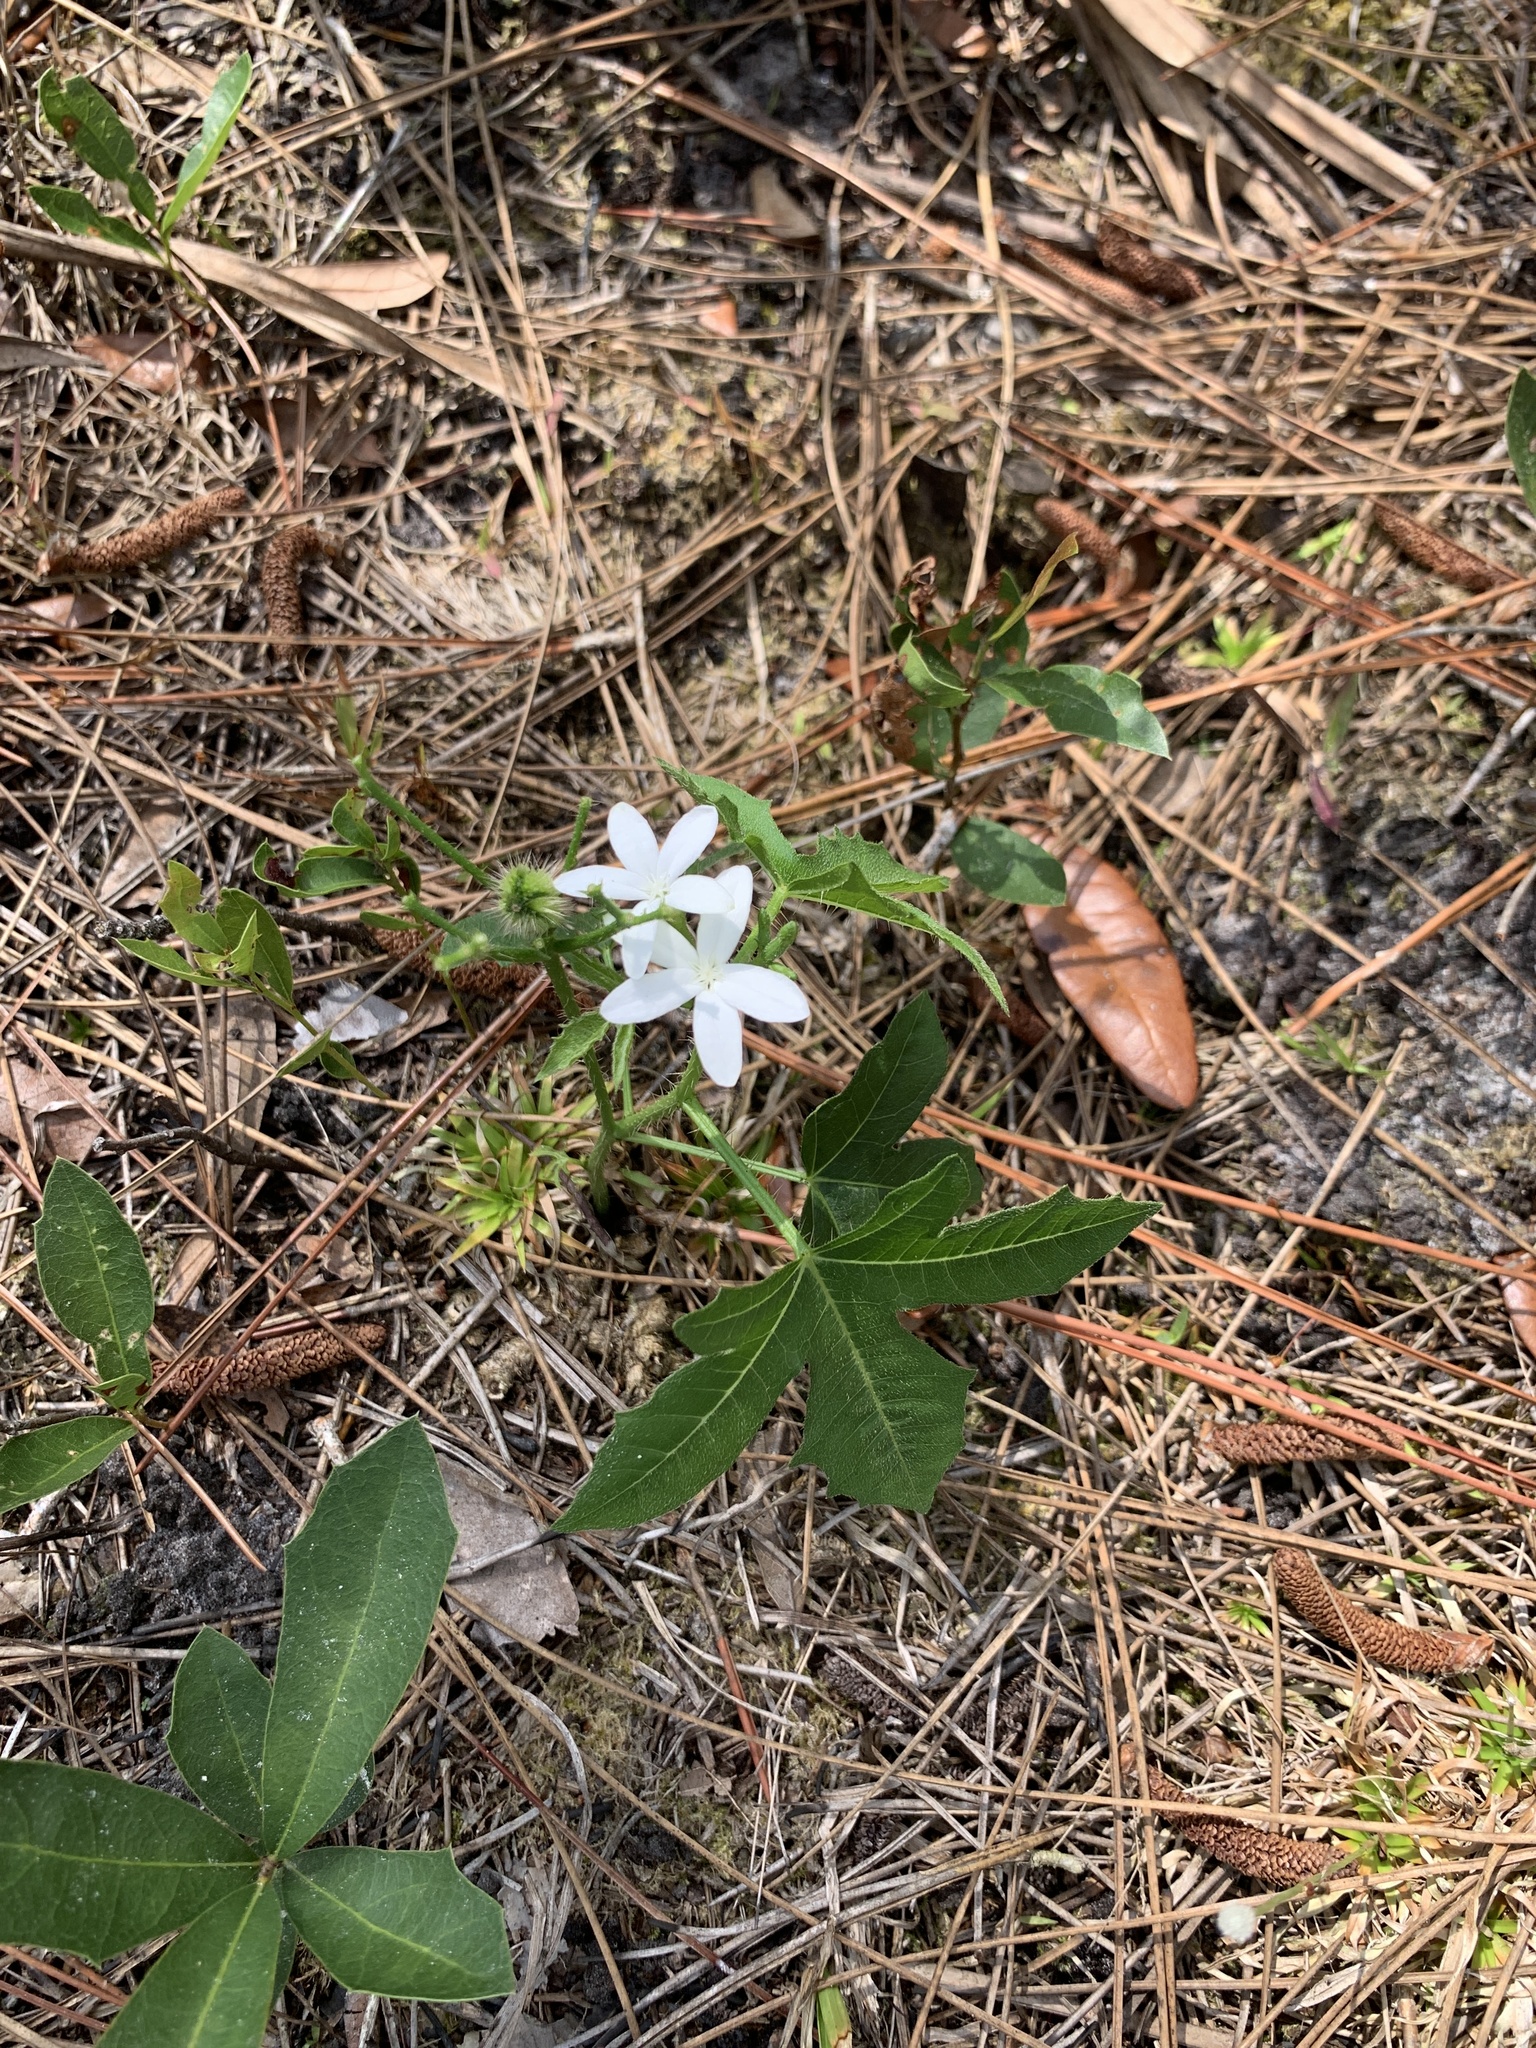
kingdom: Plantae
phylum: Tracheophyta
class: Magnoliopsida
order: Malpighiales
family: Euphorbiaceae
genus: Cnidoscolus
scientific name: Cnidoscolus stimulosus
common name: Bull-nettle
